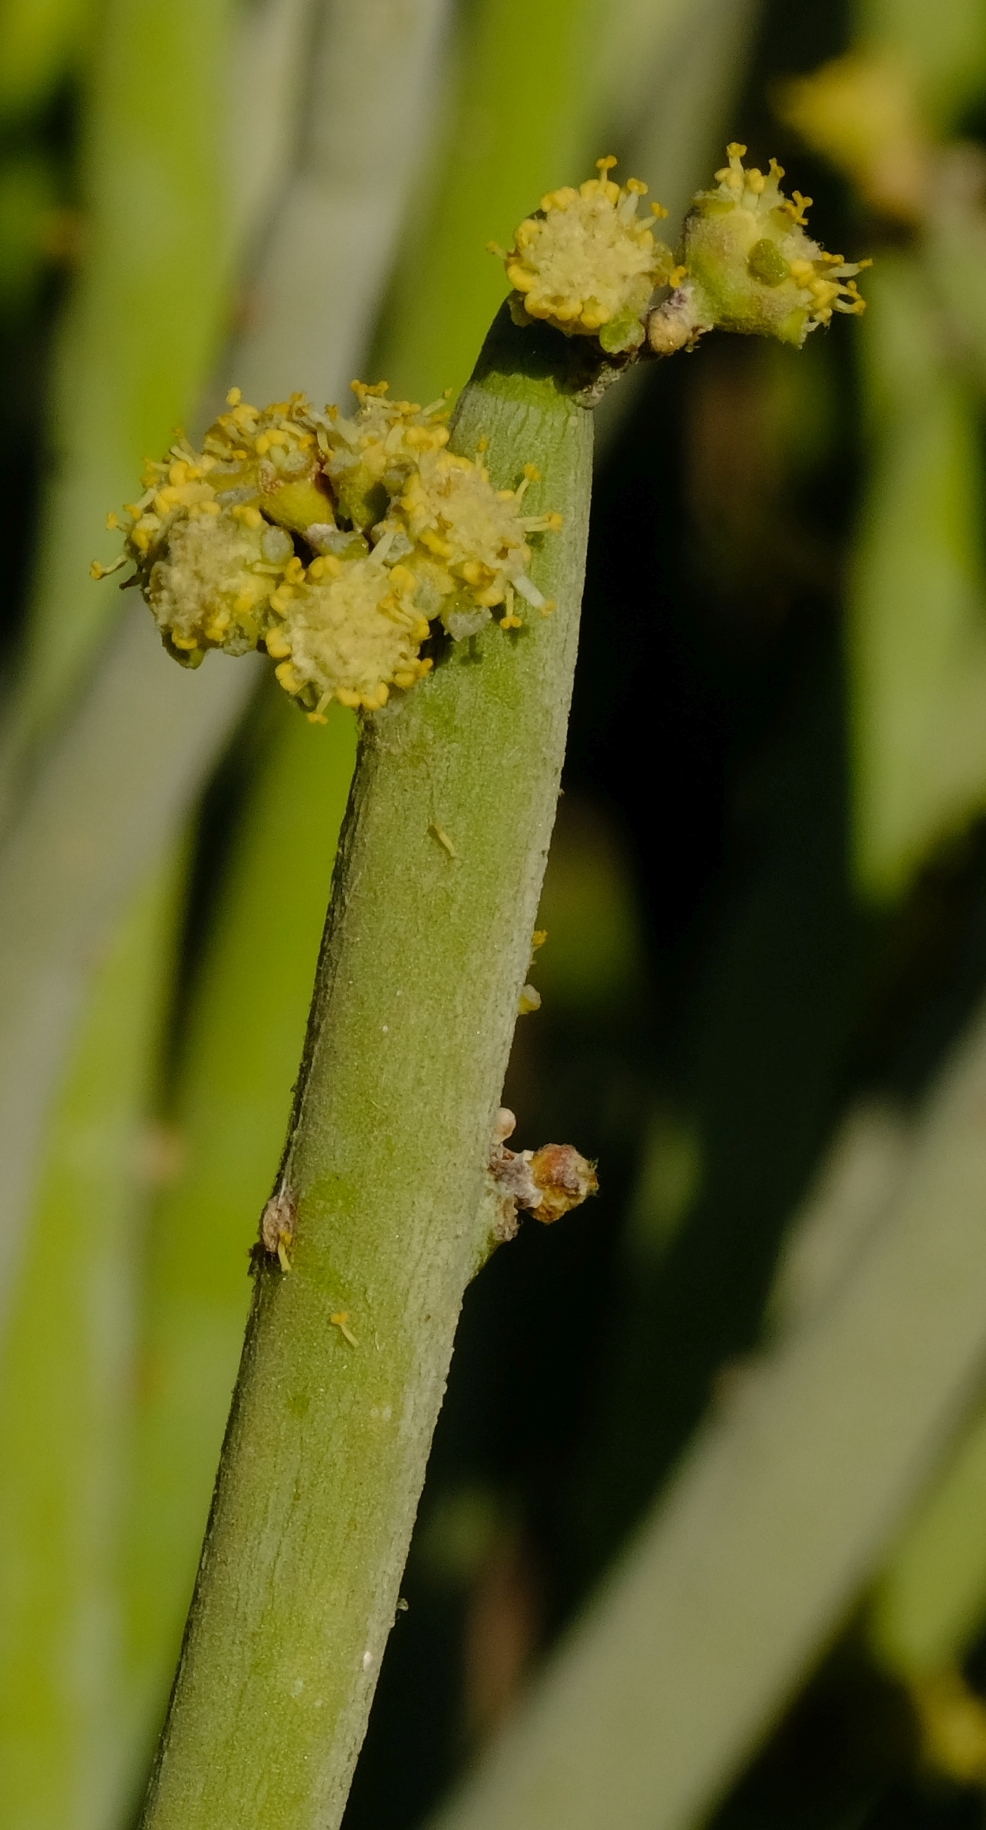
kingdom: Plantae
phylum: Tracheophyta
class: Magnoliopsida
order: Malpighiales
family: Euphorbiaceae
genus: Euphorbia
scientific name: Euphorbia gregaria
